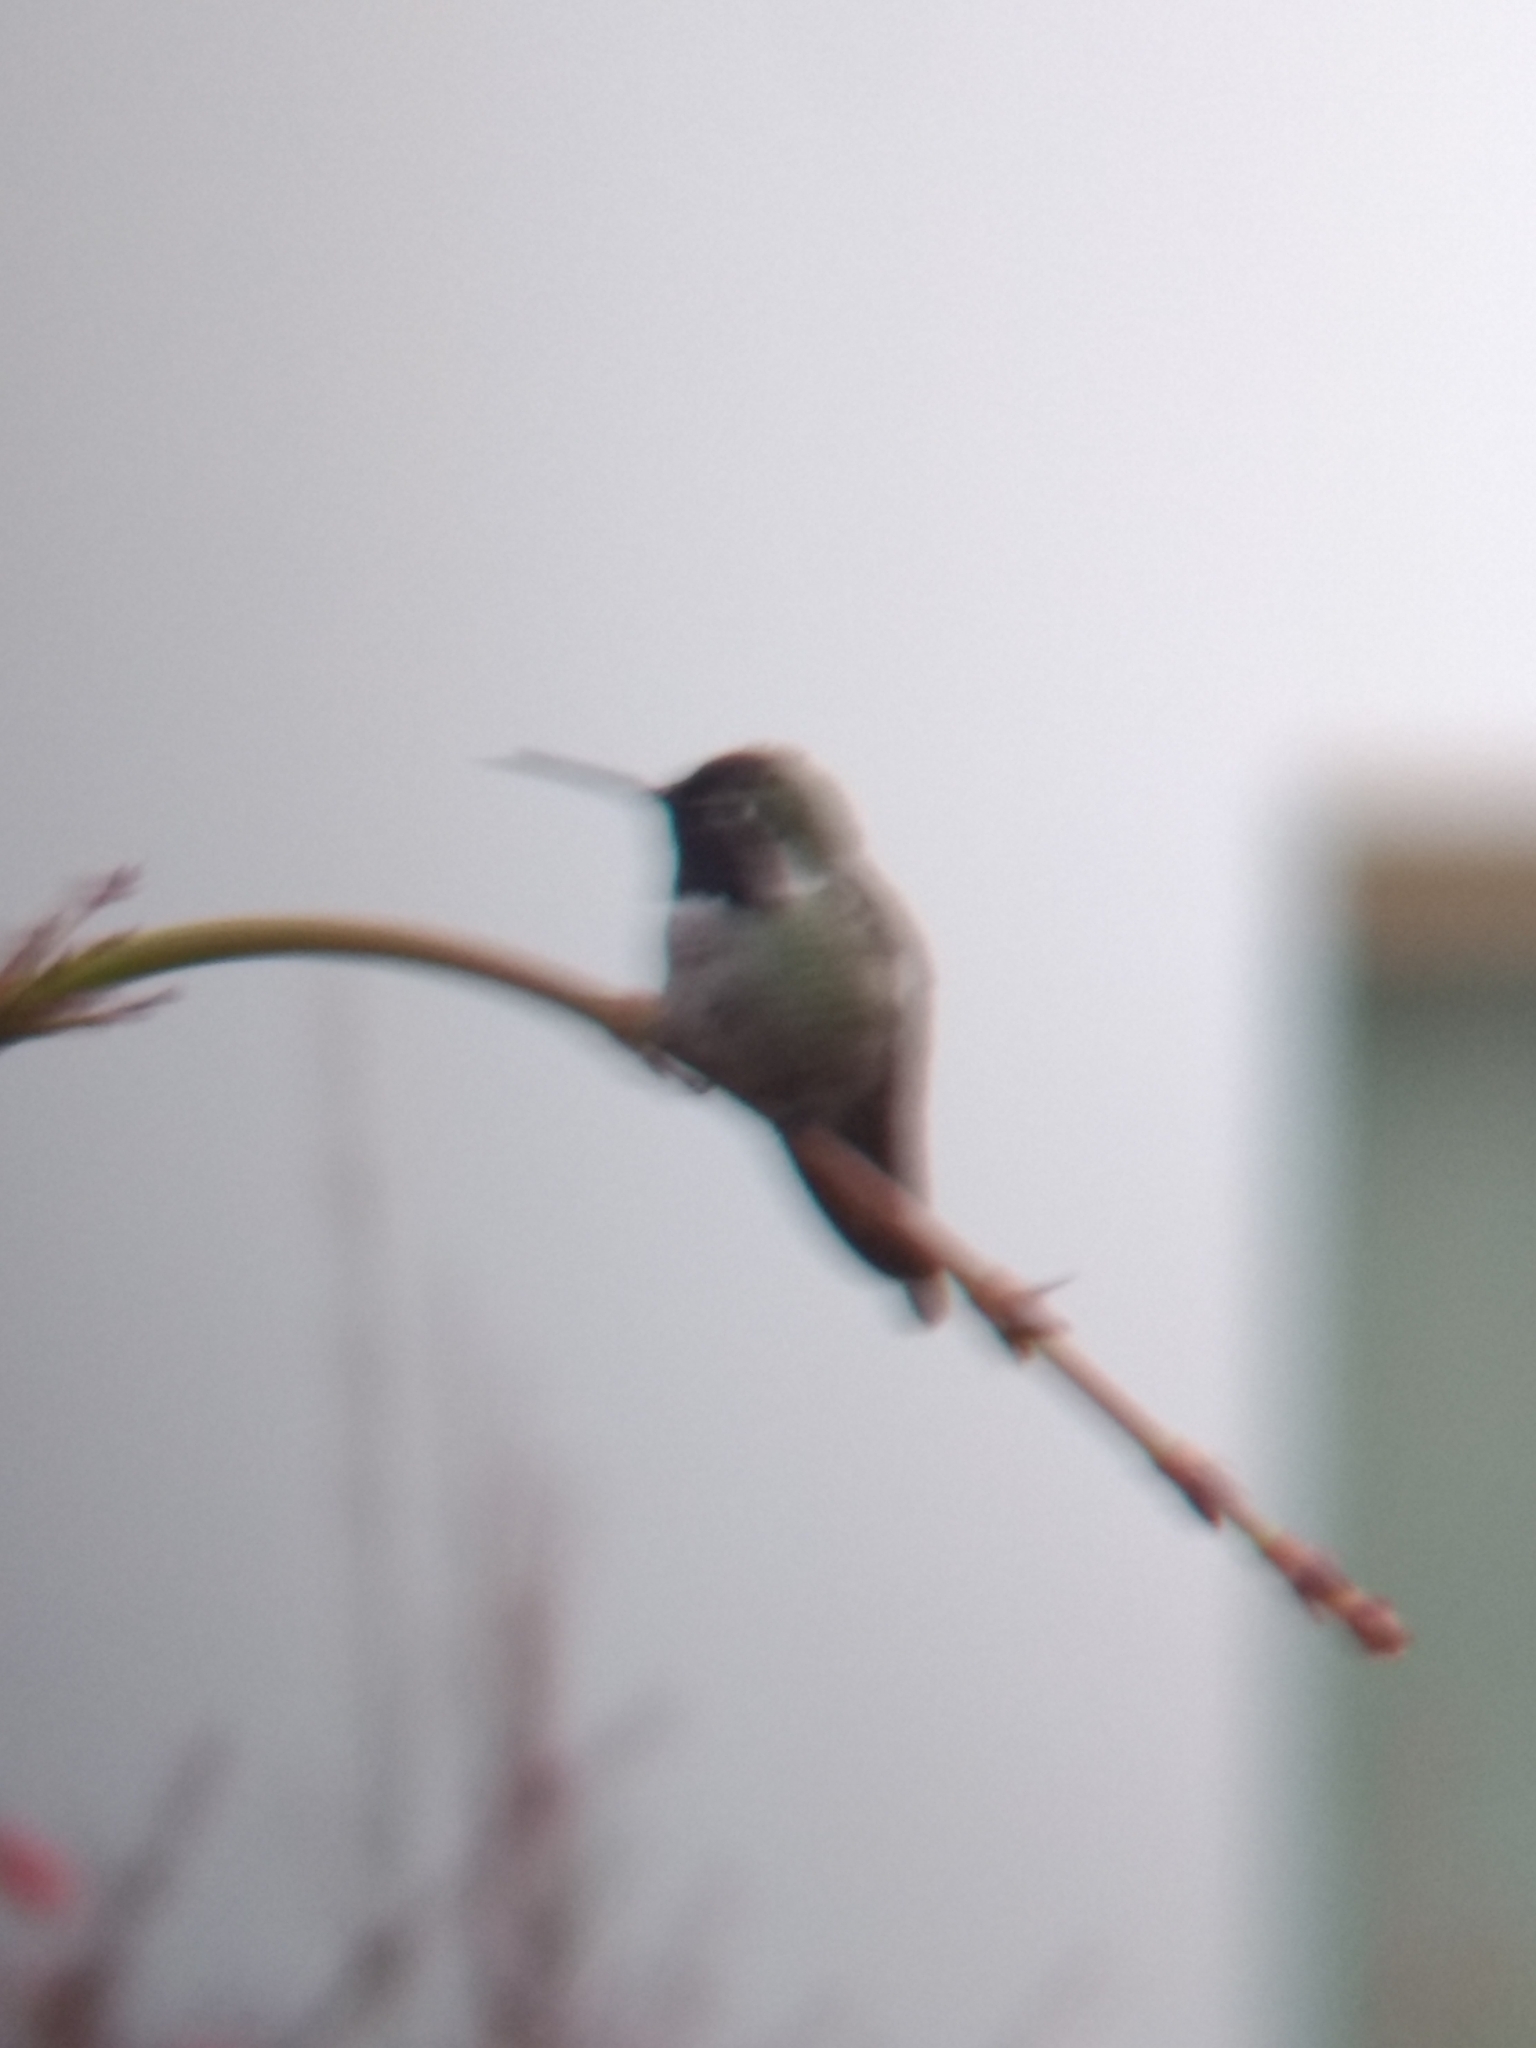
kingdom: Animalia
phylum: Chordata
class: Aves
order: Apodiformes
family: Trochilidae
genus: Calypte
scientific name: Calypte anna
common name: Anna's hummingbird
